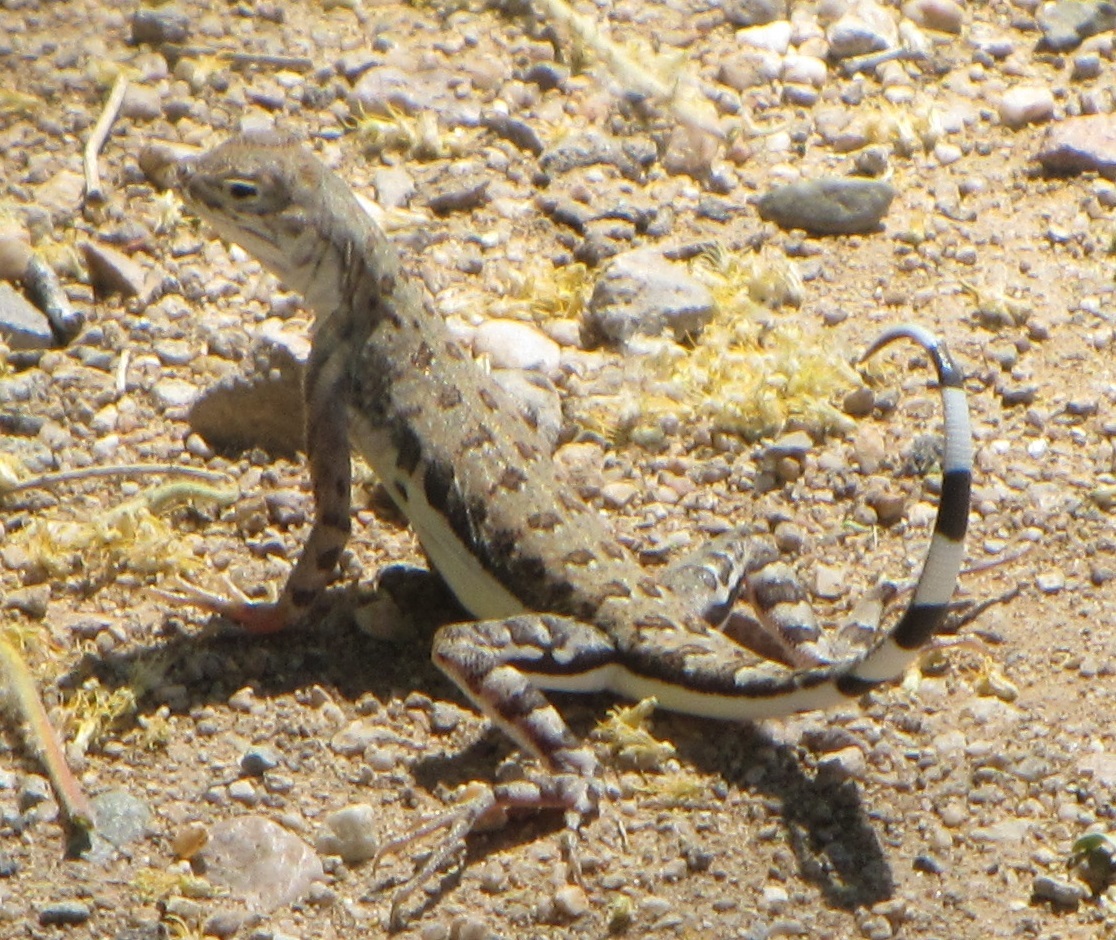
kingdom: Animalia
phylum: Chordata
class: Squamata
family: Phrynosomatidae
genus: Callisaurus
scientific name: Callisaurus draconoides
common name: Zebra-tailed lizard
